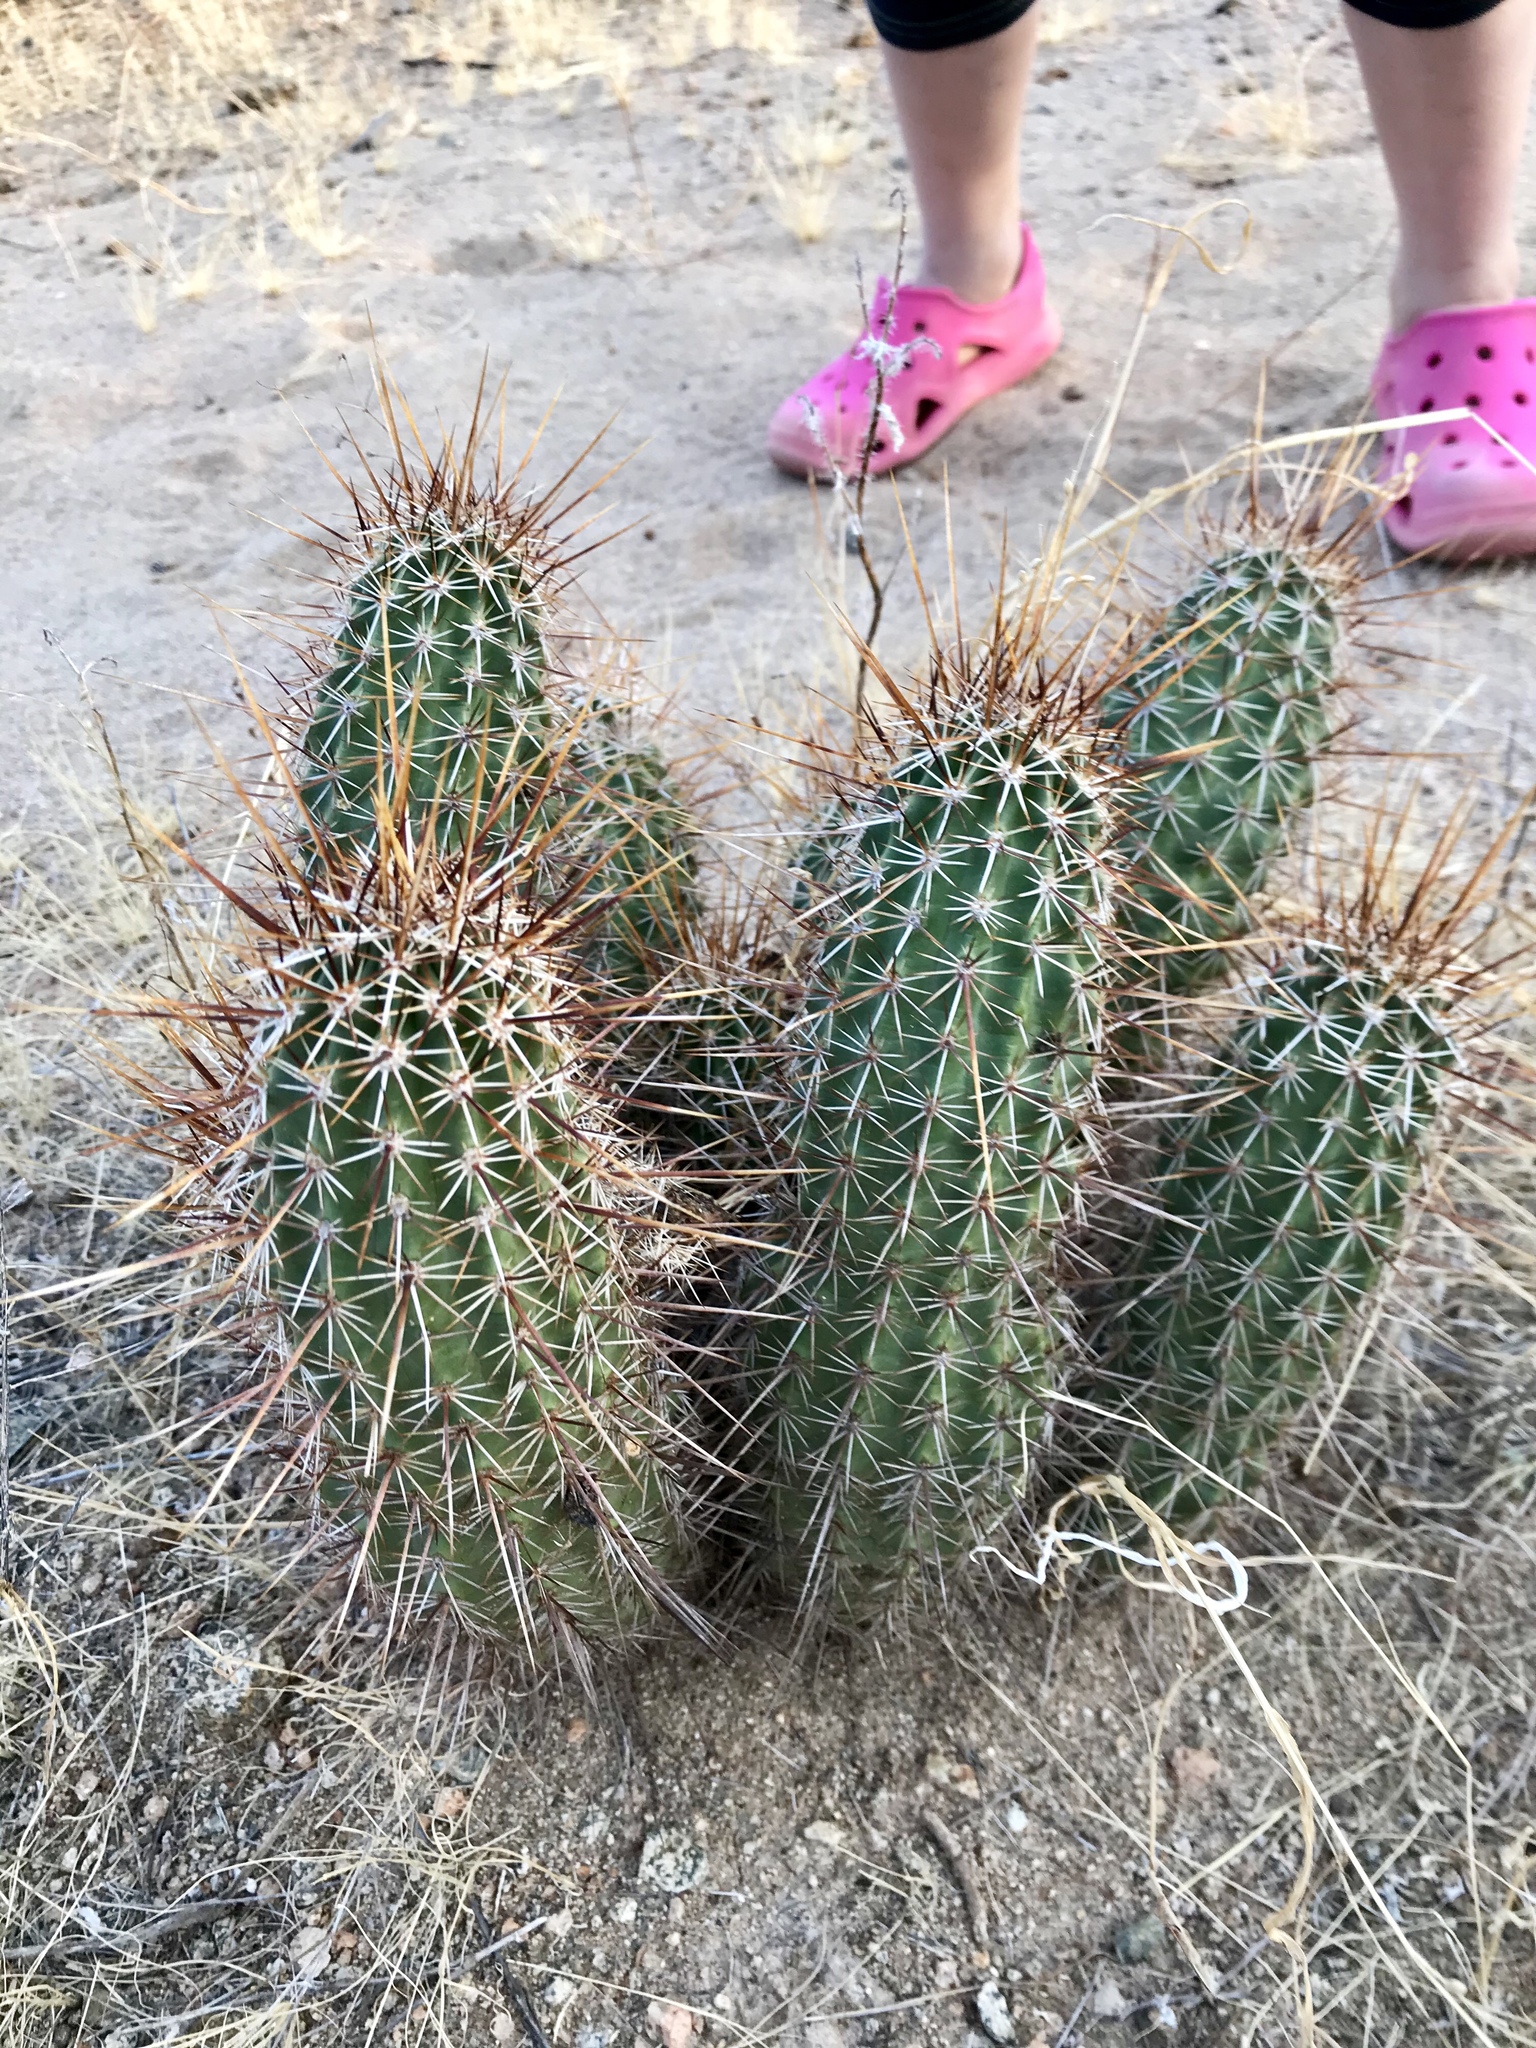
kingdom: Plantae
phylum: Tracheophyta
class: Magnoliopsida
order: Caryophyllales
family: Cactaceae
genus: Echinocereus
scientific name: Echinocereus fasciculatus
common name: Bundle hedgehog
